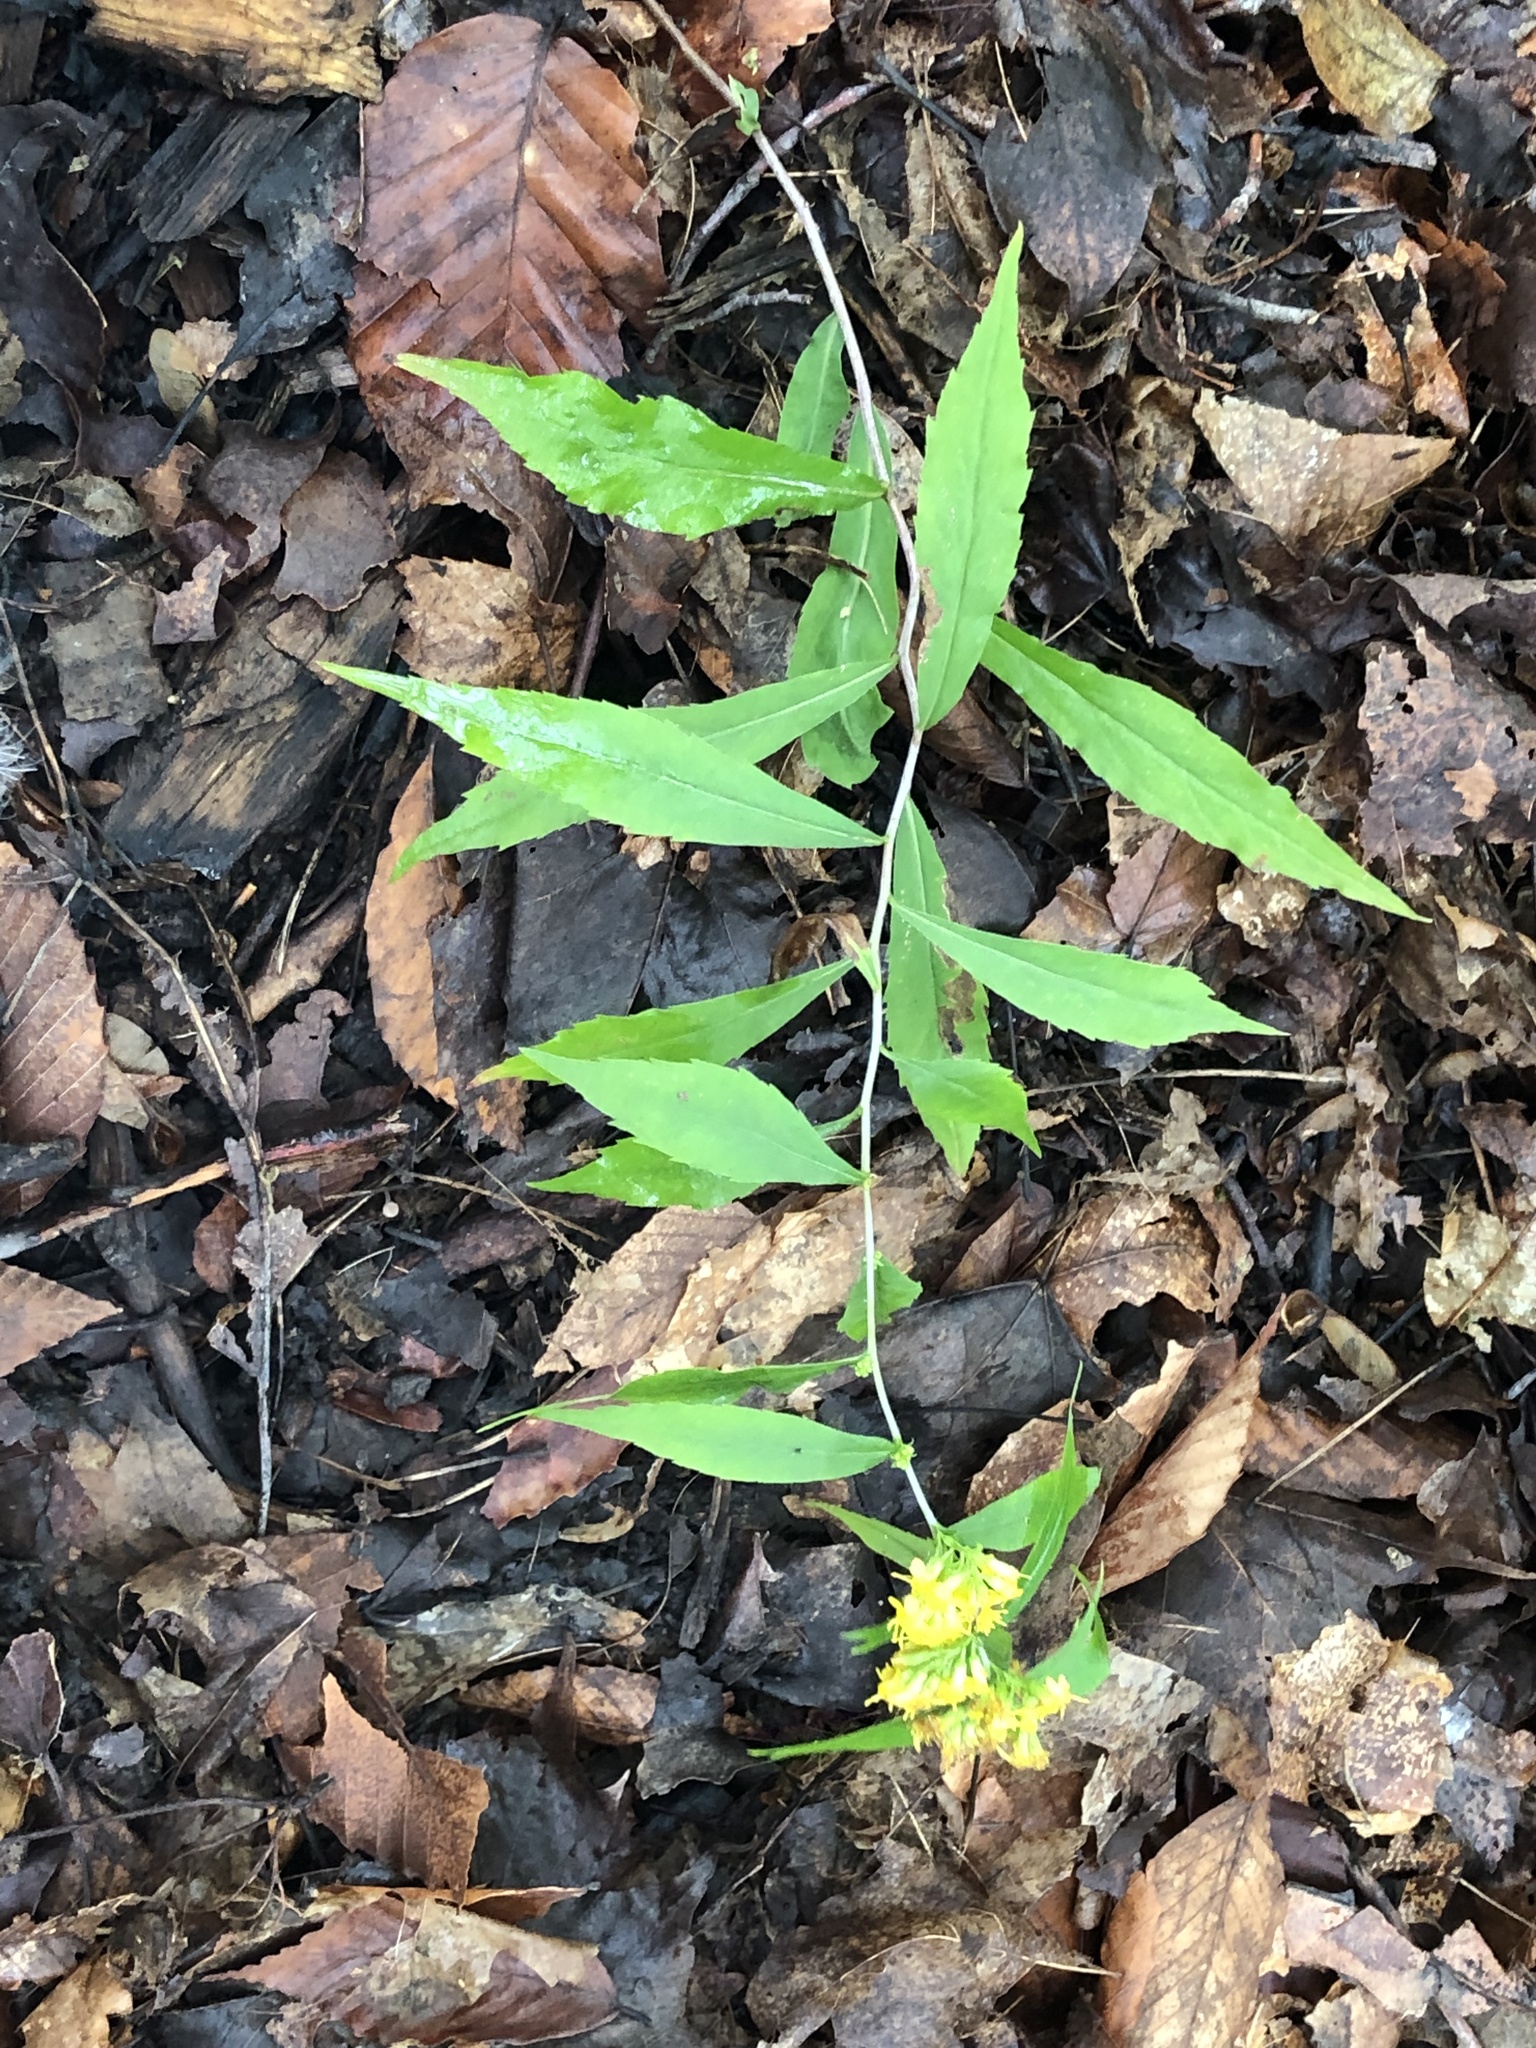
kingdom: Plantae
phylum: Tracheophyta
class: Magnoliopsida
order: Asterales
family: Asteraceae
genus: Solidago
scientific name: Solidago caesia
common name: Woodland goldenrod
